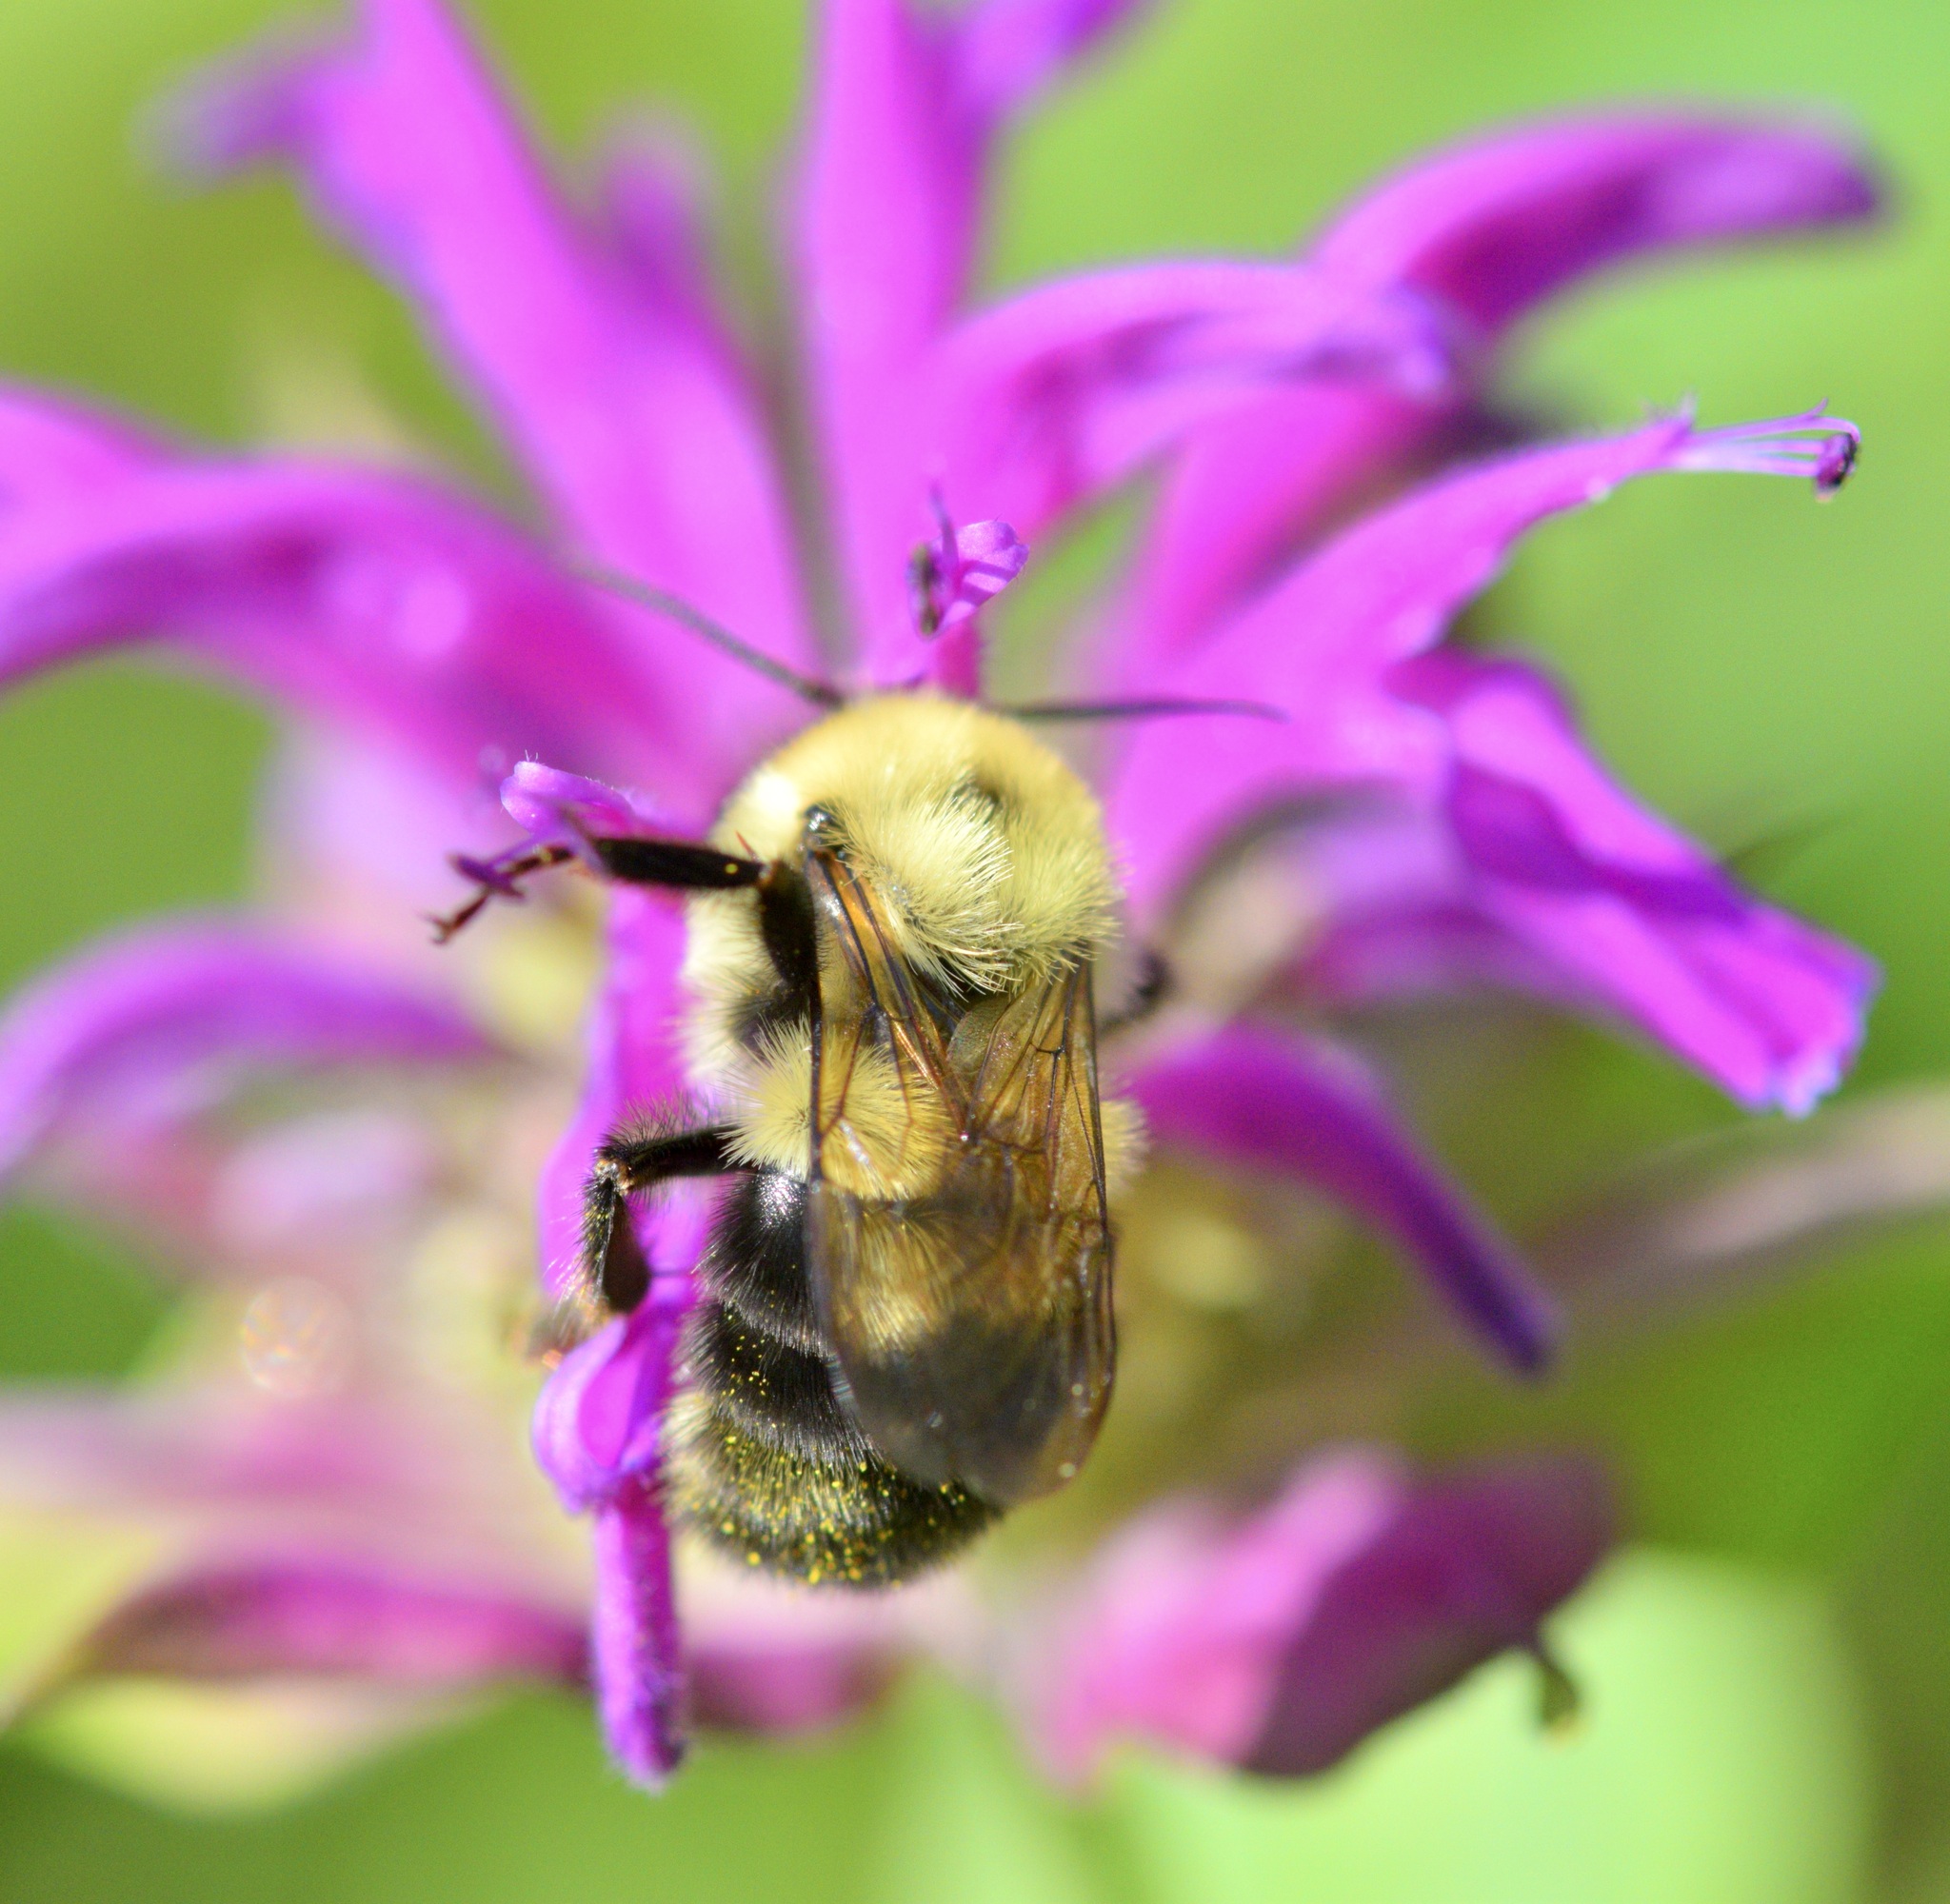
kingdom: Animalia
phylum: Arthropoda
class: Insecta
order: Hymenoptera
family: Apidae
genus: Bombus
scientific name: Bombus bimaculatus
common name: Two-spotted bumble bee
